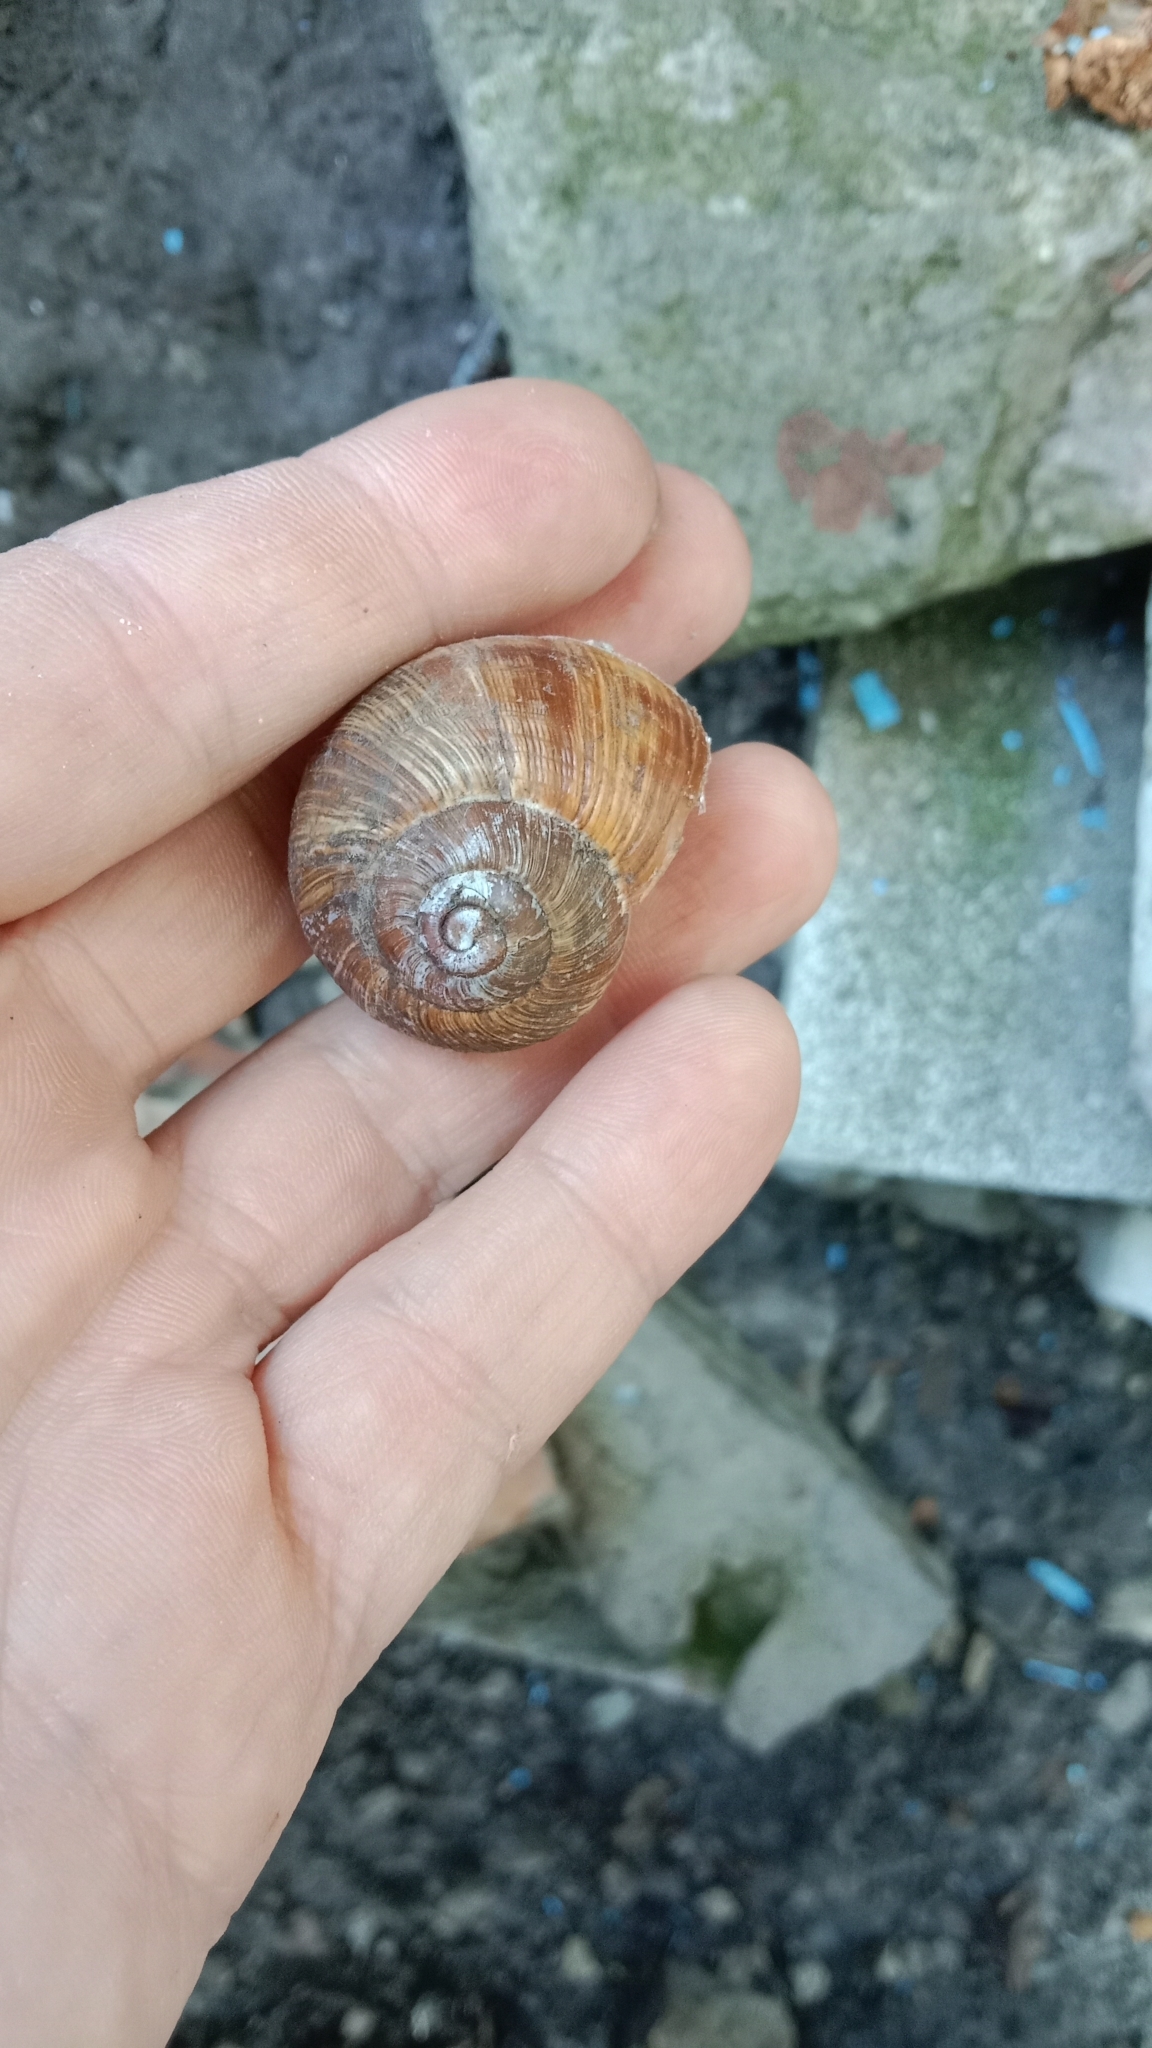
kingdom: Animalia
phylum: Mollusca
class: Gastropoda
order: Stylommatophora
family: Helicidae
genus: Helix
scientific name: Helix pomatia
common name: Roman snail
